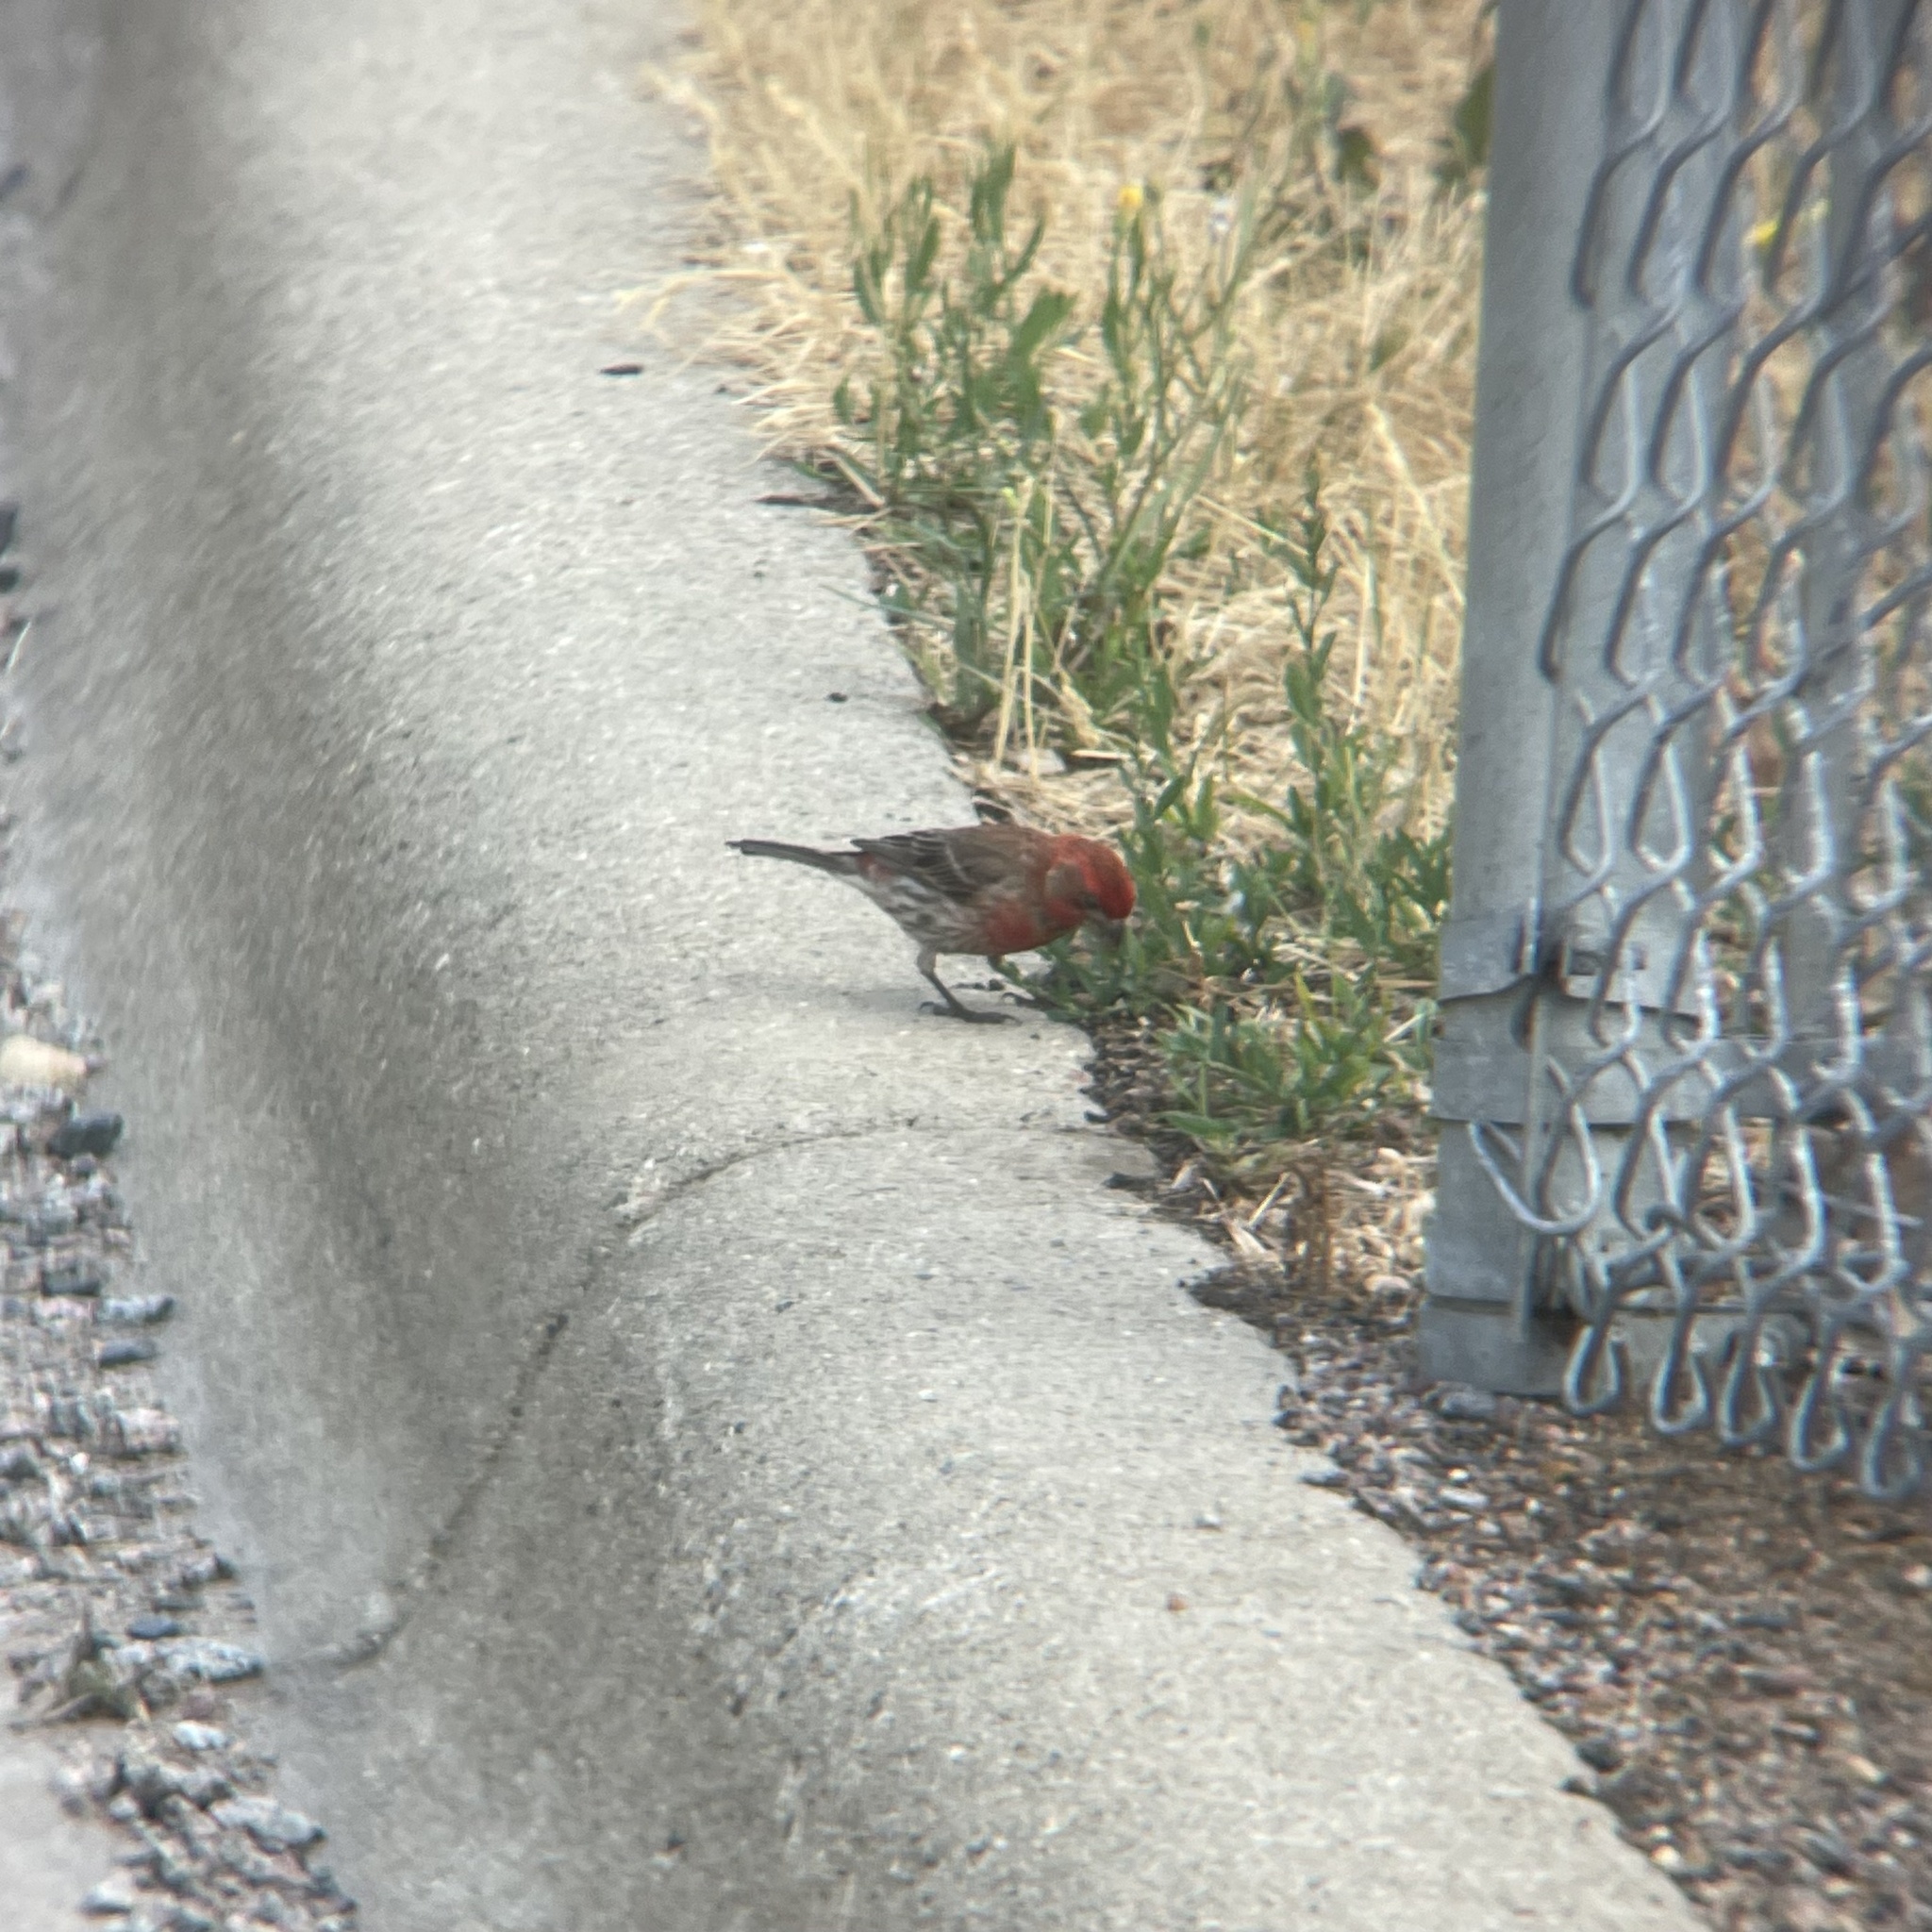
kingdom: Animalia
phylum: Chordata
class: Aves
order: Passeriformes
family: Fringillidae
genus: Haemorhous
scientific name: Haemorhous mexicanus
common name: House finch
